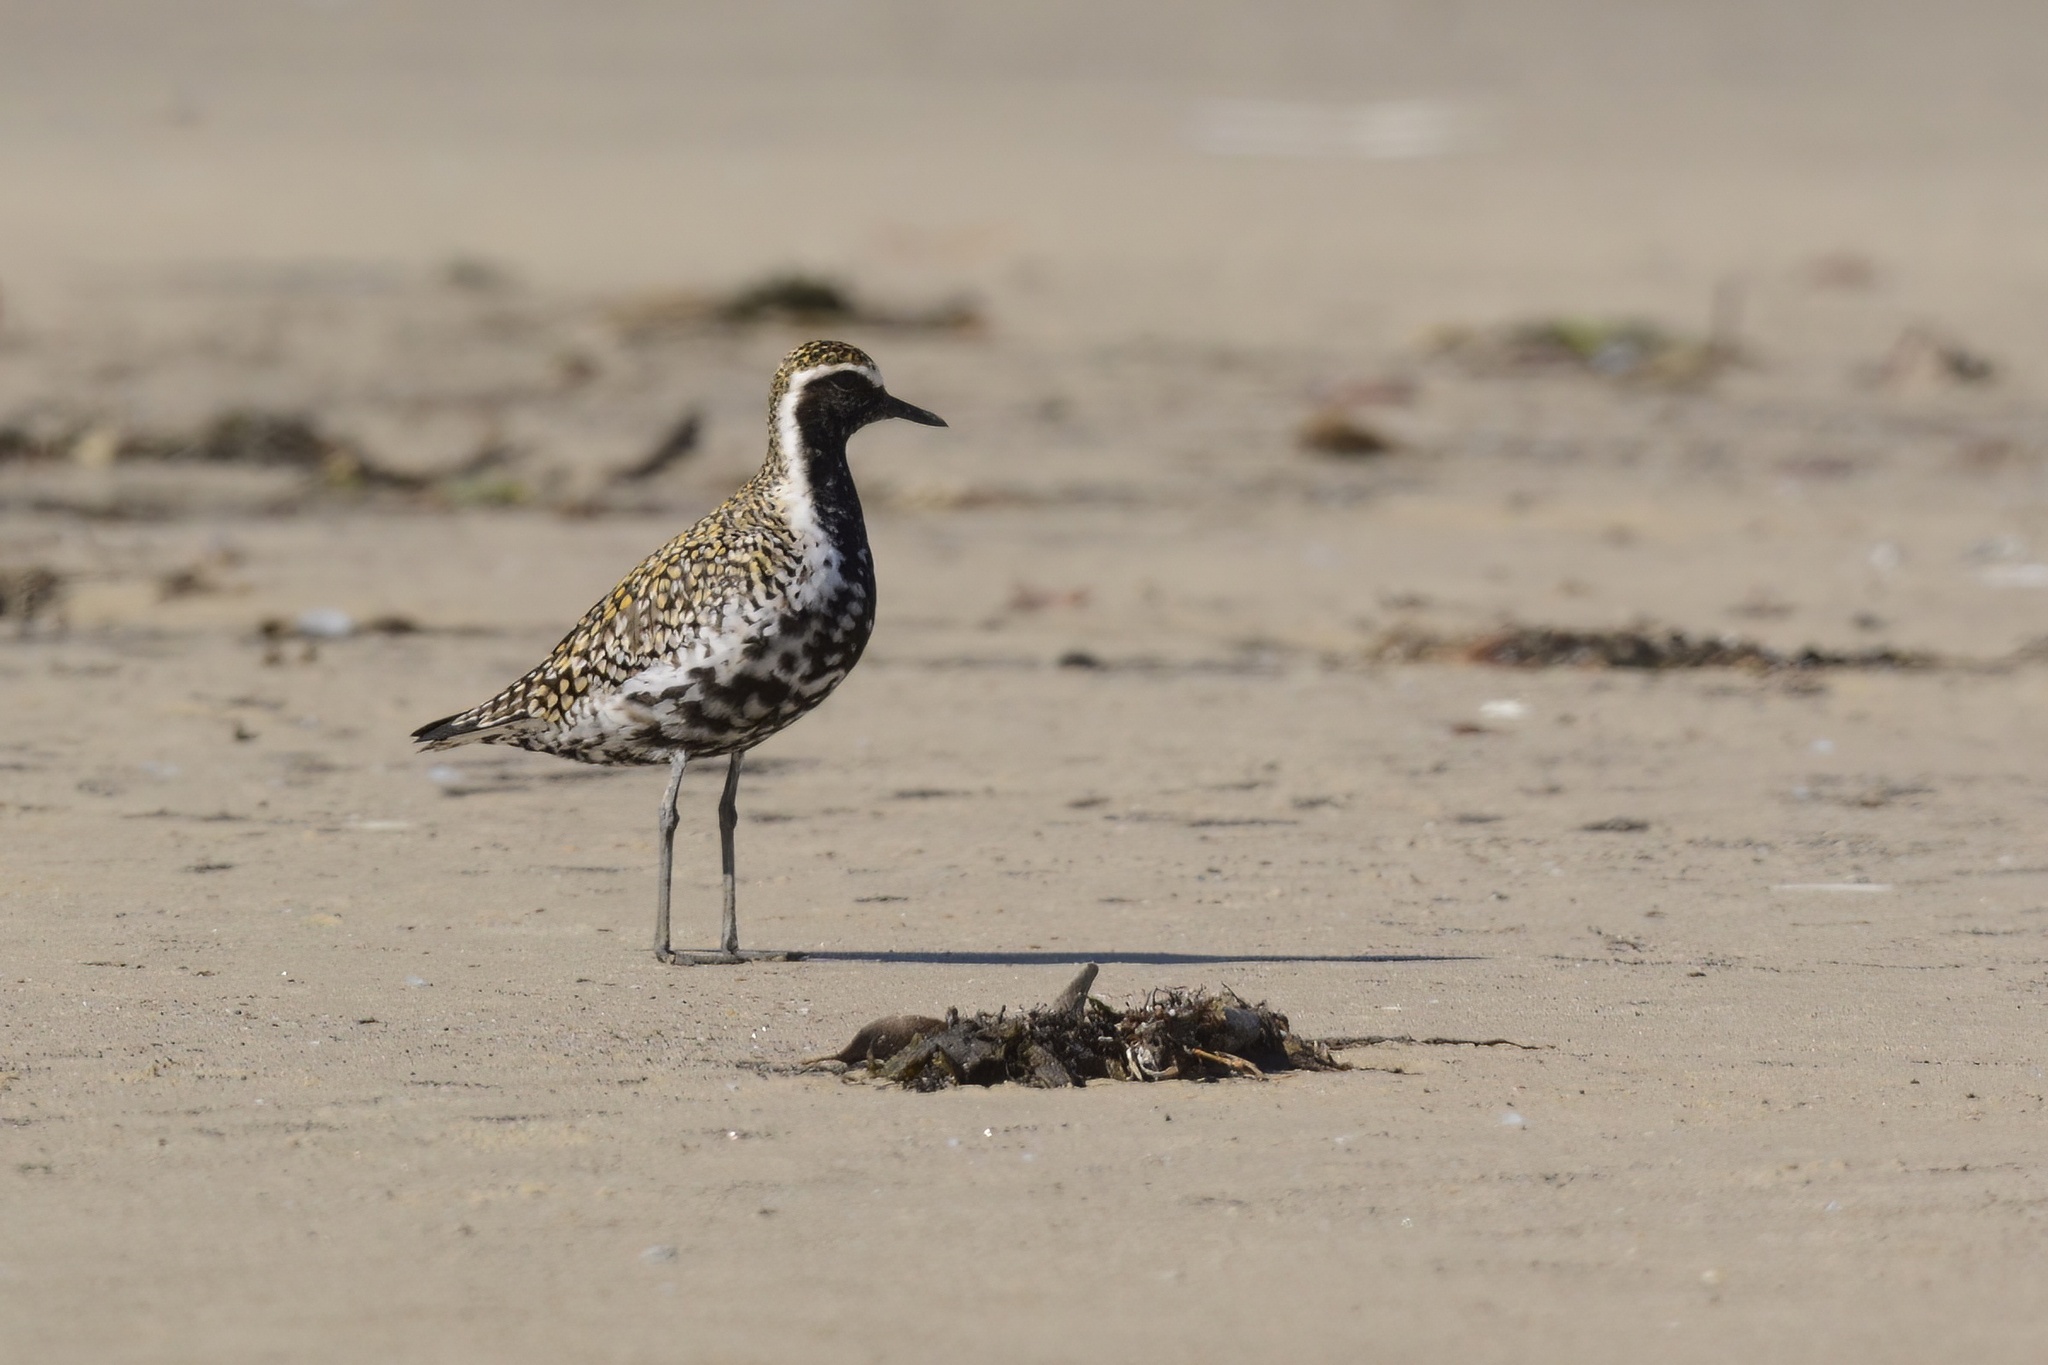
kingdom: Animalia
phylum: Chordata
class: Aves
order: Charadriiformes
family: Charadriidae
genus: Pluvialis
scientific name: Pluvialis fulva
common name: Pacific golden plover
